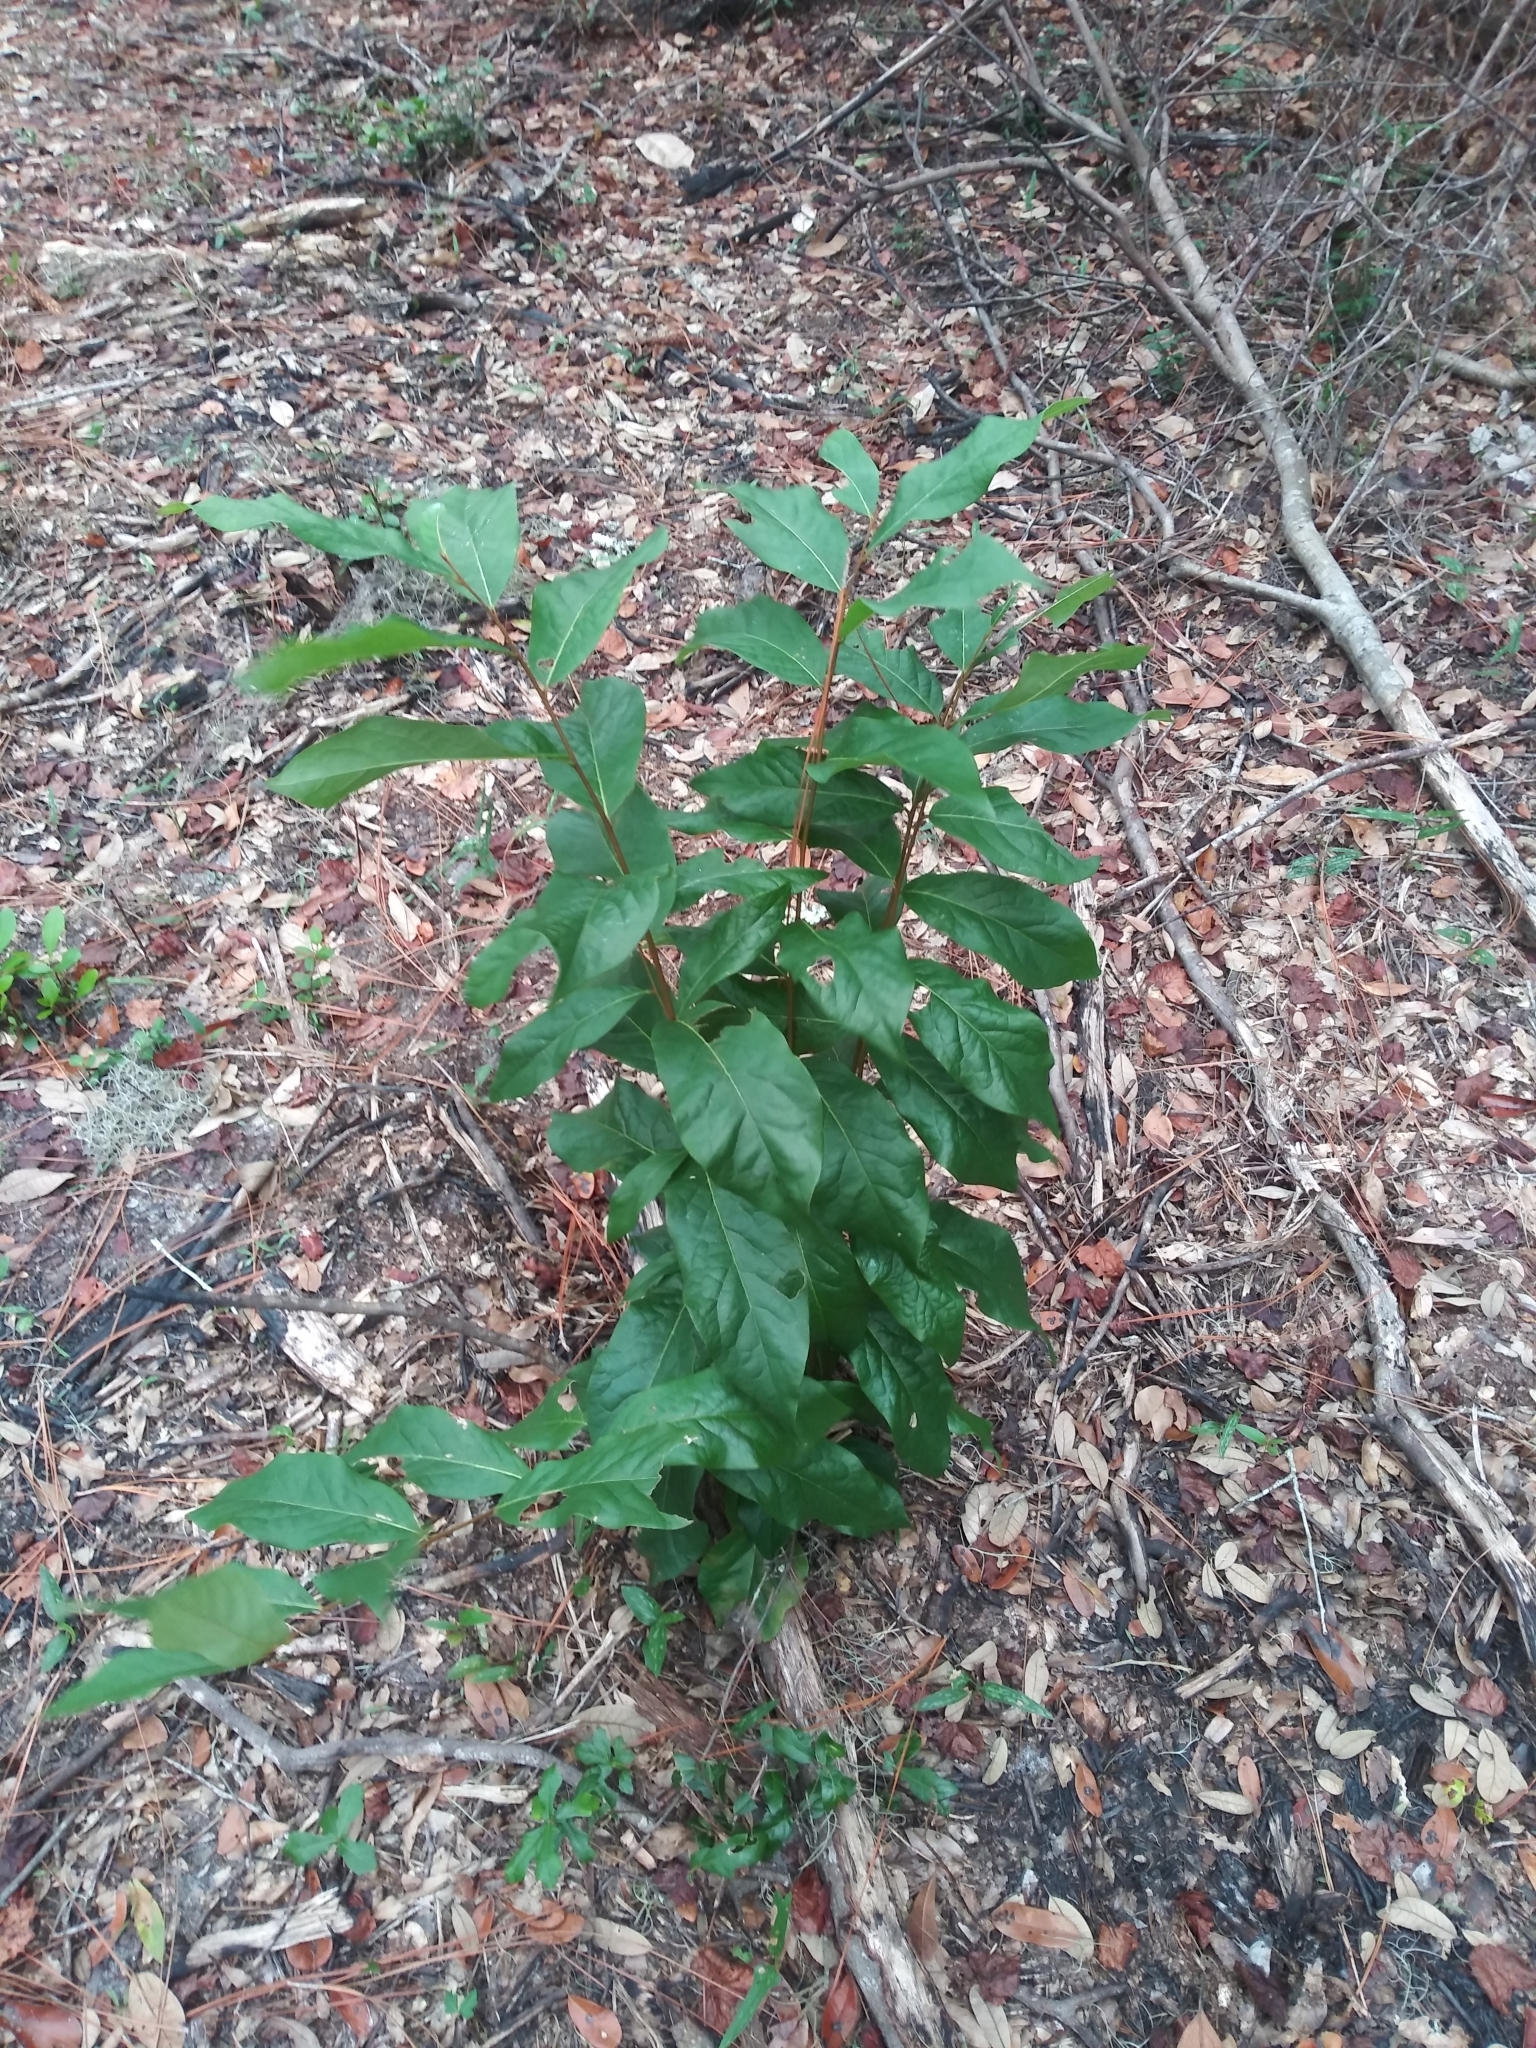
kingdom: Plantae
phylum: Tracheophyta
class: Magnoliopsida
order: Magnoliales
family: Annonaceae
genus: Asimina
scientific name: Asimina parviflora
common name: Dwarf pawpaw
